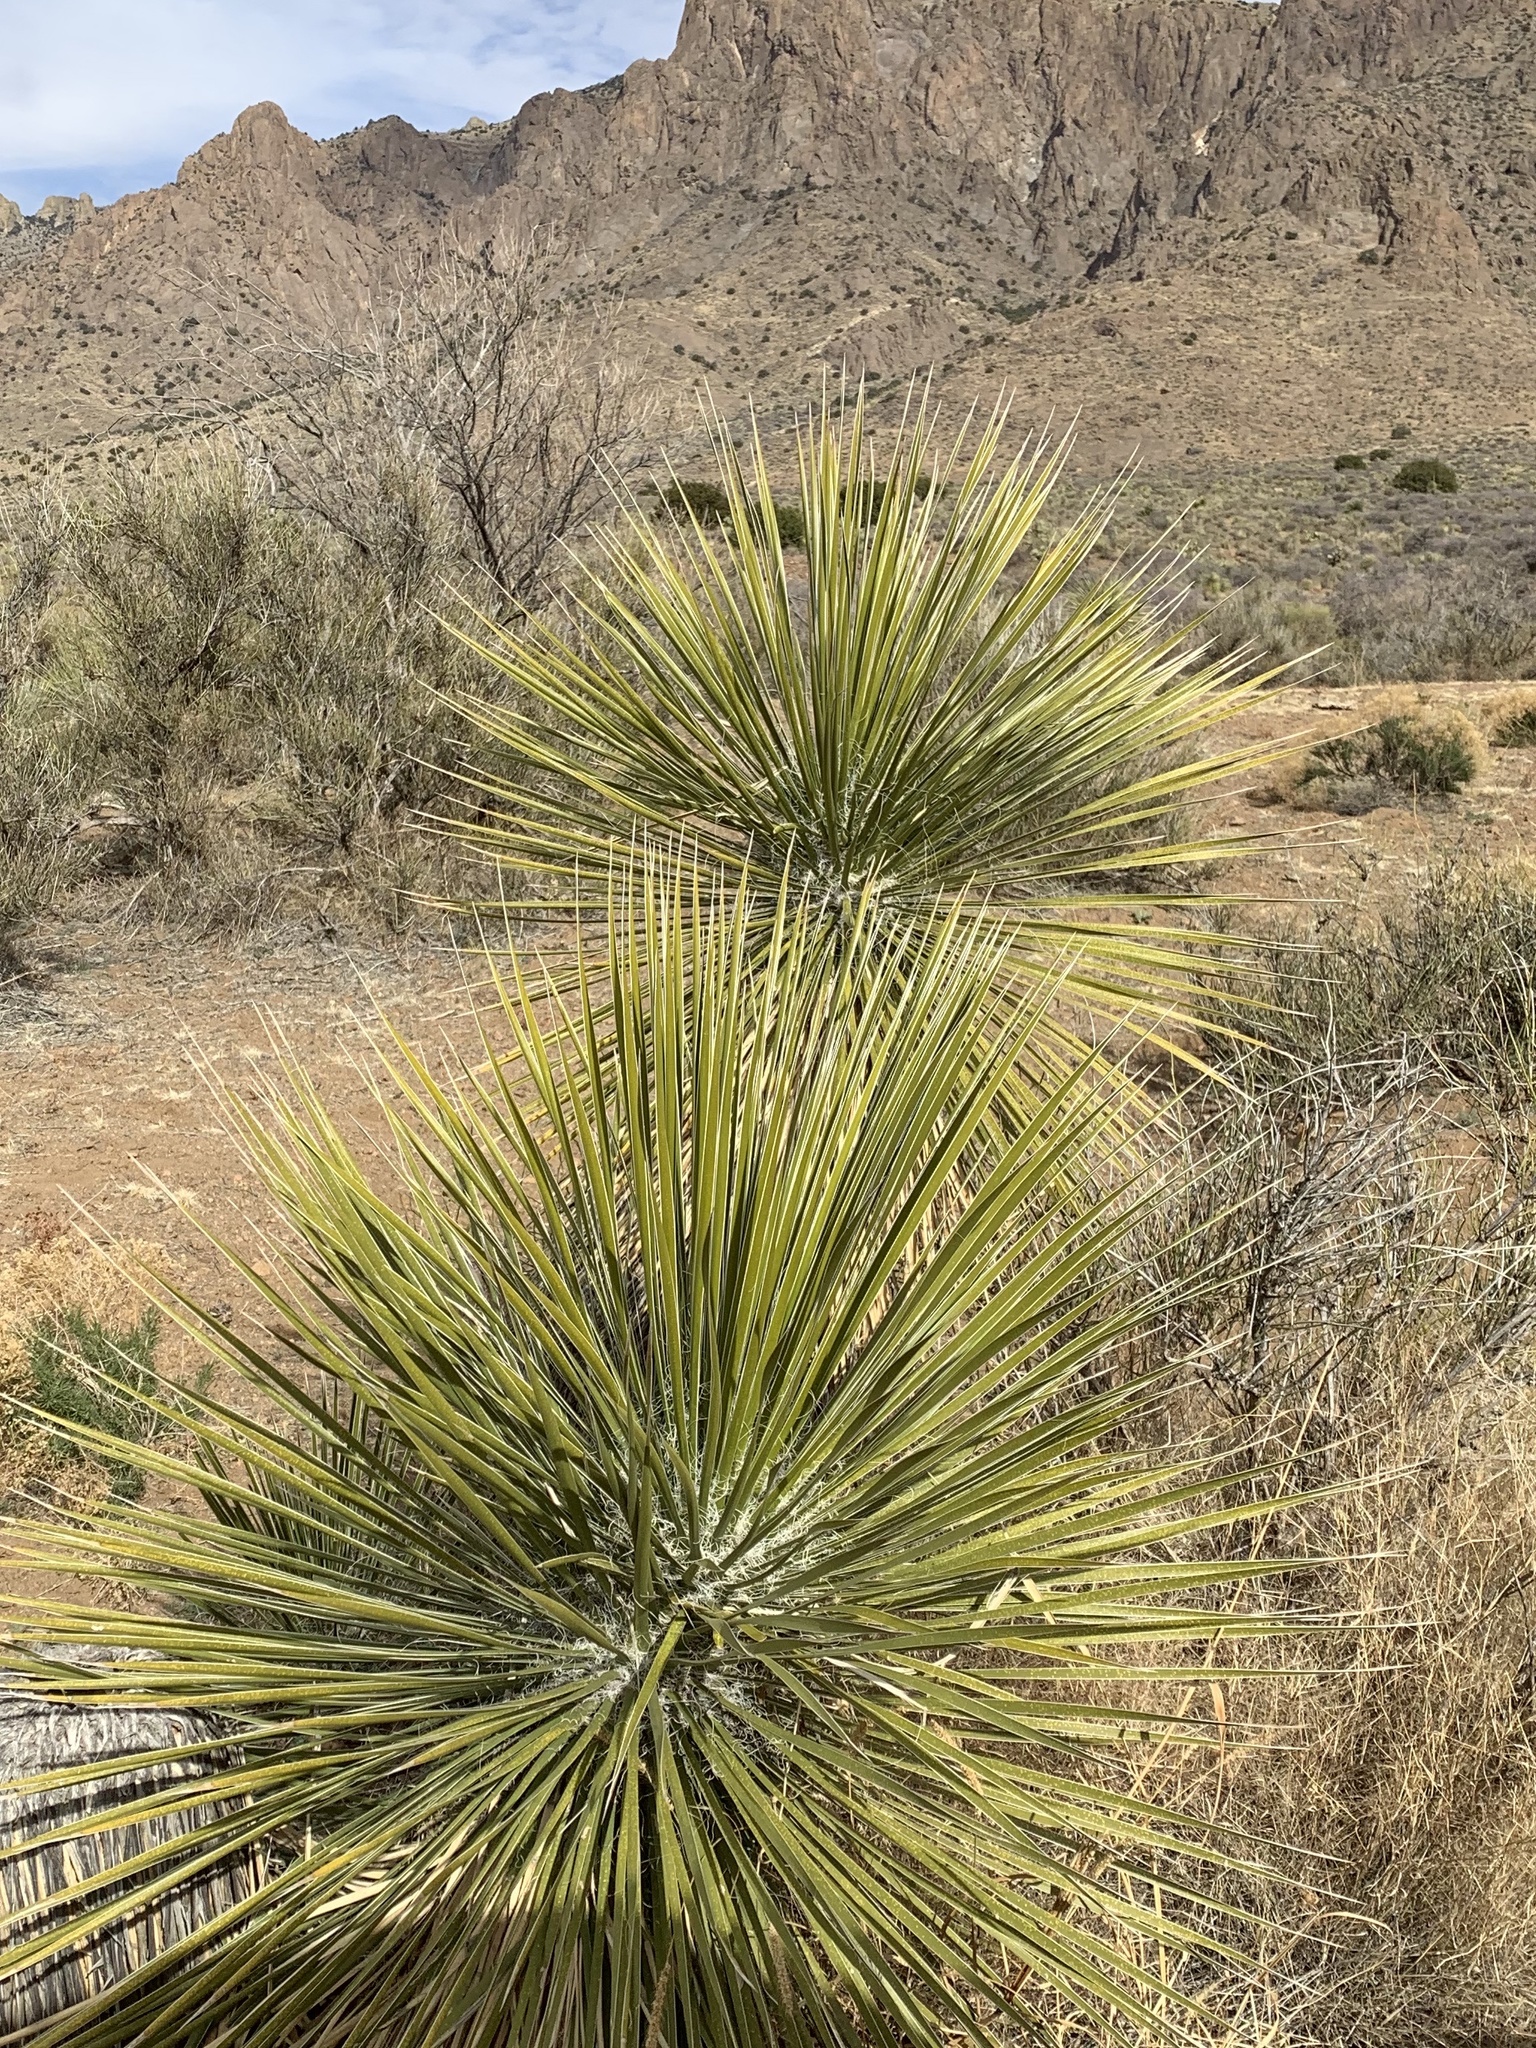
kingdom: Plantae
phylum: Tracheophyta
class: Liliopsida
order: Asparagales
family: Asparagaceae
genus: Yucca
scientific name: Yucca elata
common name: Palmella
